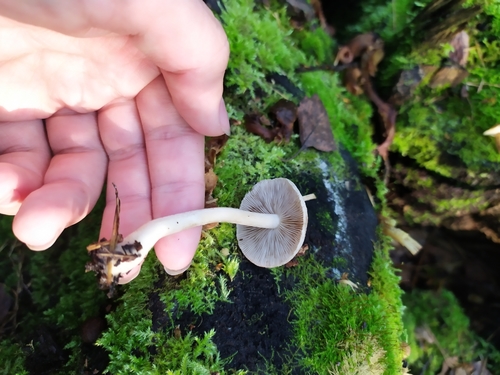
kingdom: Fungi
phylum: Basidiomycota
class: Agaricomycetes
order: Agaricales
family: Inocybaceae
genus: Inocybe
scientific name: Inocybe
